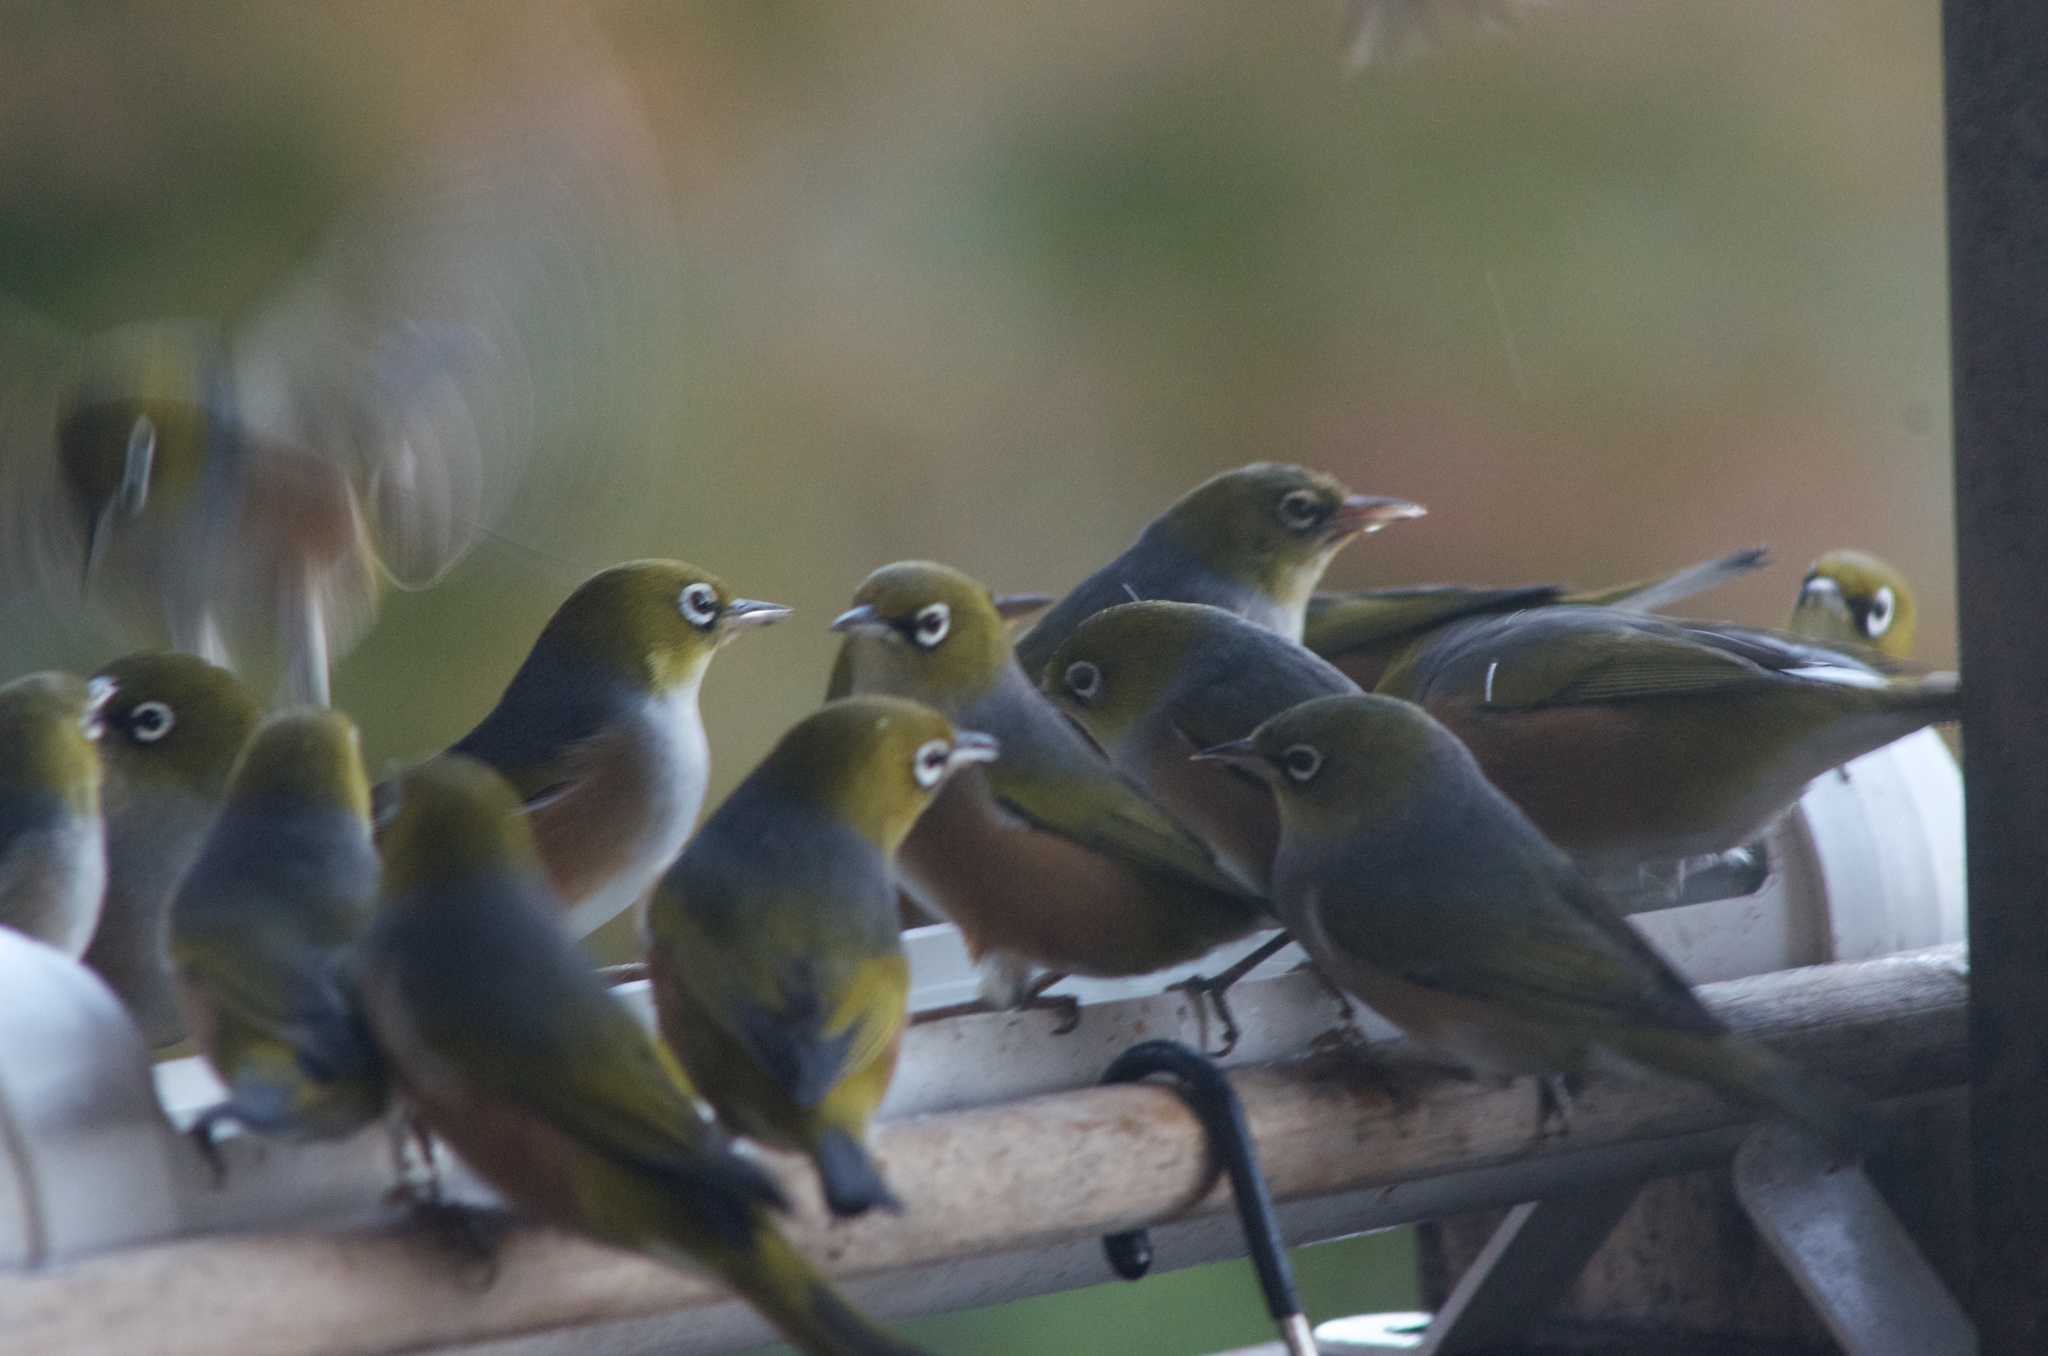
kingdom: Animalia
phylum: Chordata
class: Aves
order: Passeriformes
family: Zosteropidae
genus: Zosterops
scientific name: Zosterops lateralis
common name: Silvereye
